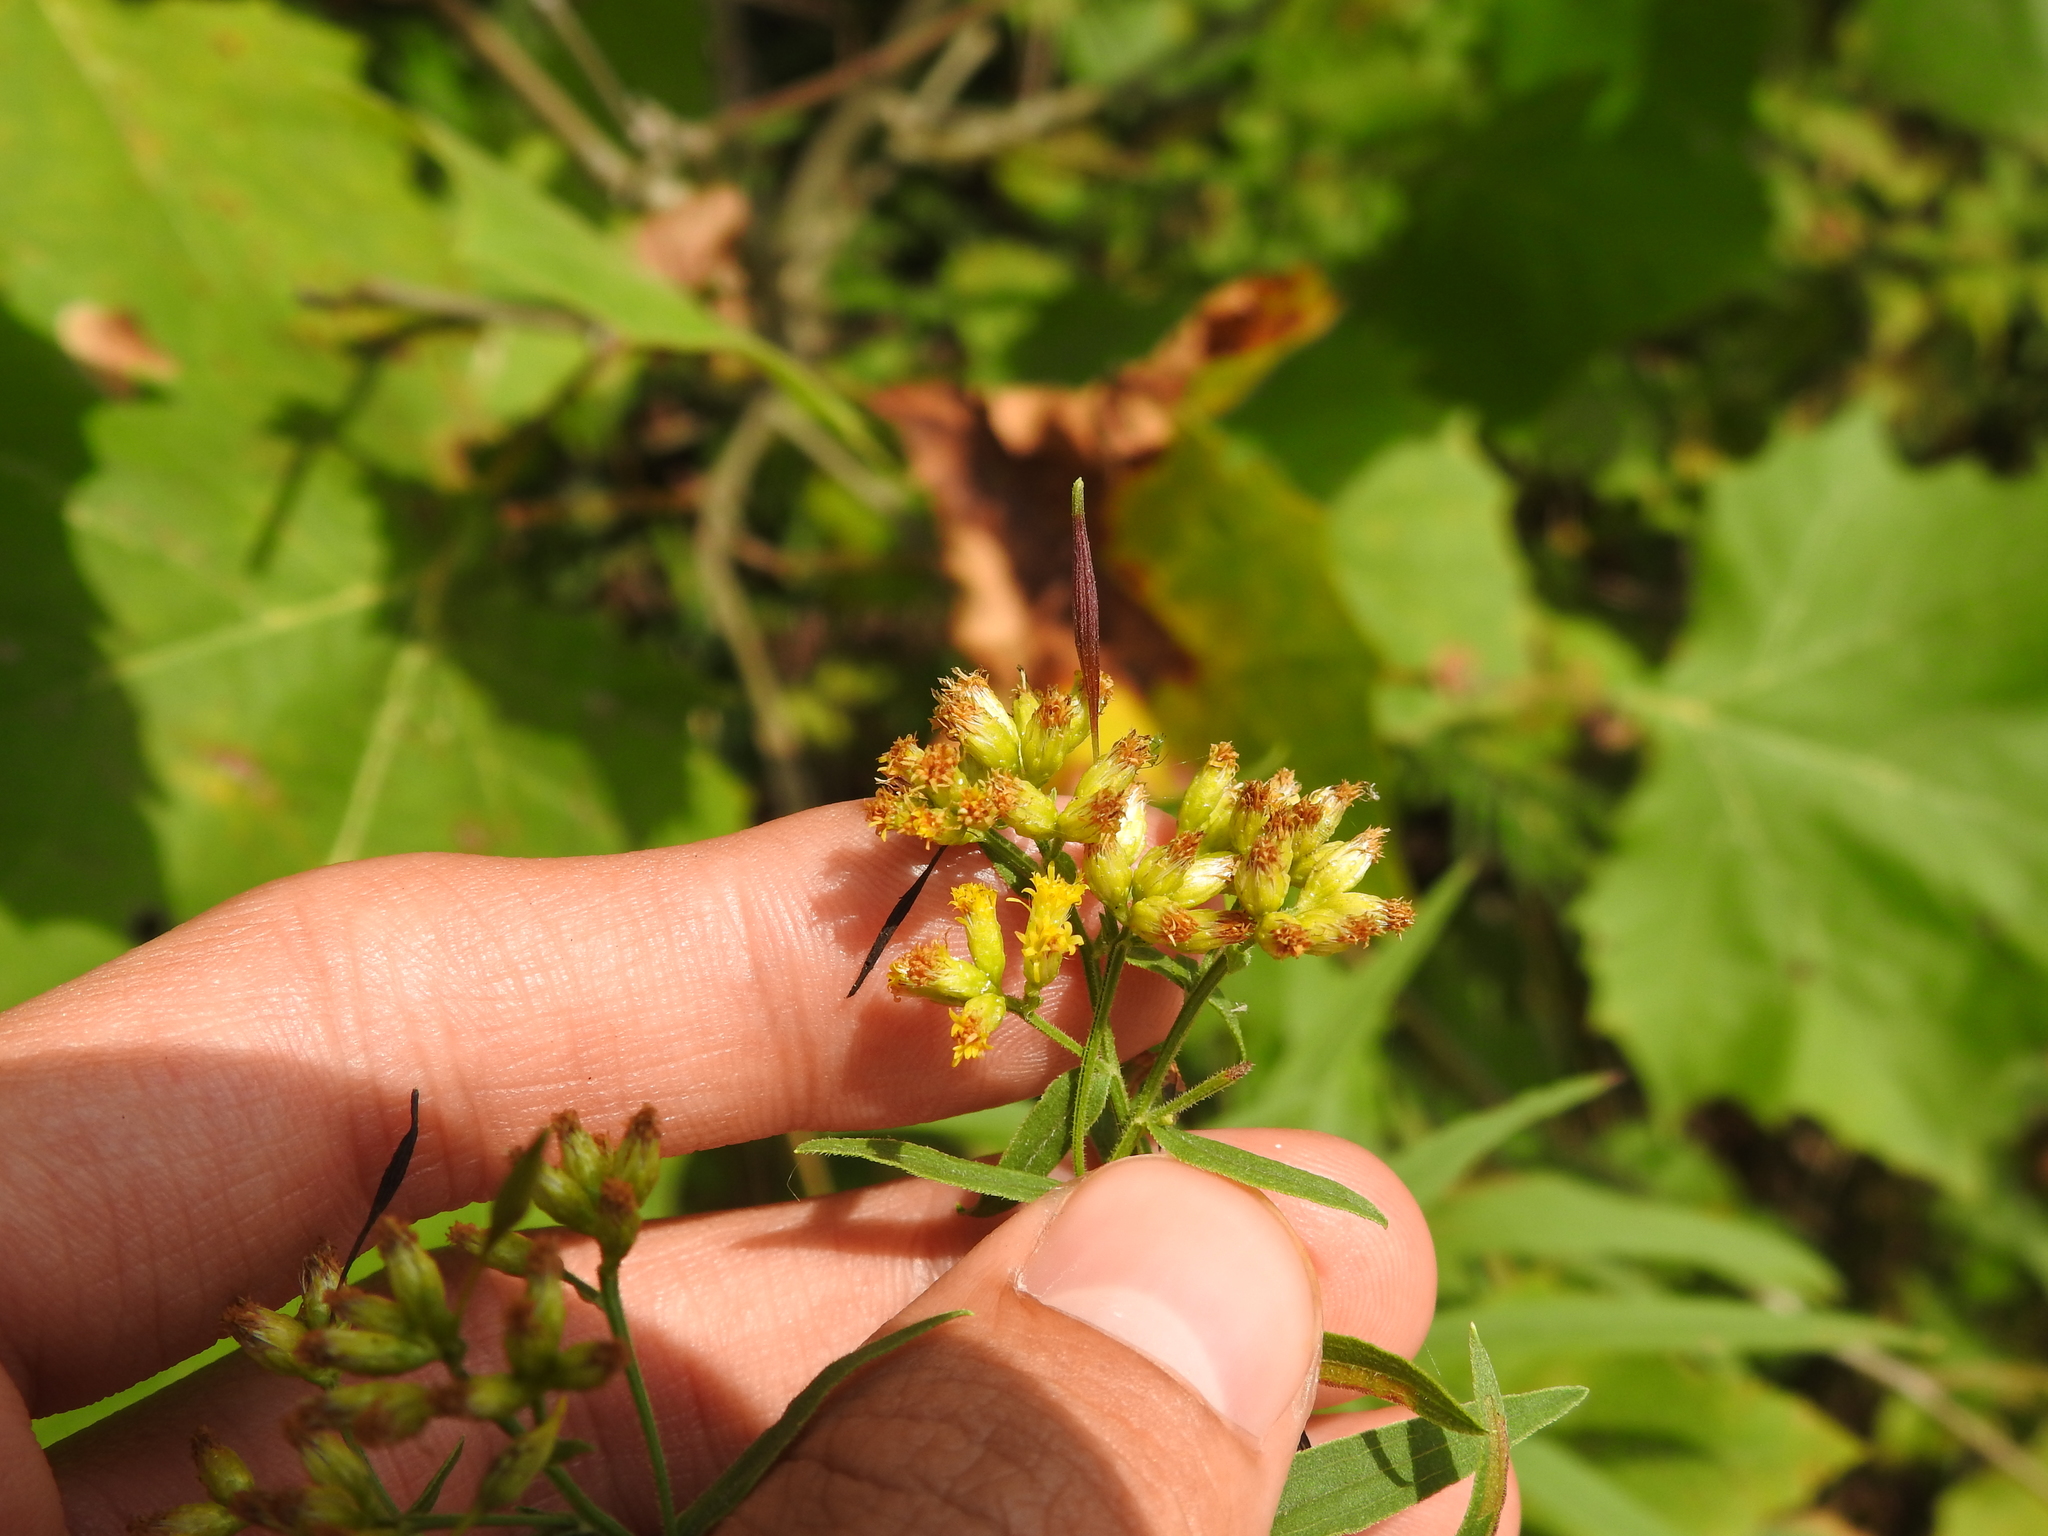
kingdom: Animalia
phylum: Arthropoda
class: Insecta
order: Diptera
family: Cecidomyiidae
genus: Rhopalomyia
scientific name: Rhopalomyia pedicellata
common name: Goldentop pedicellate gall midge
